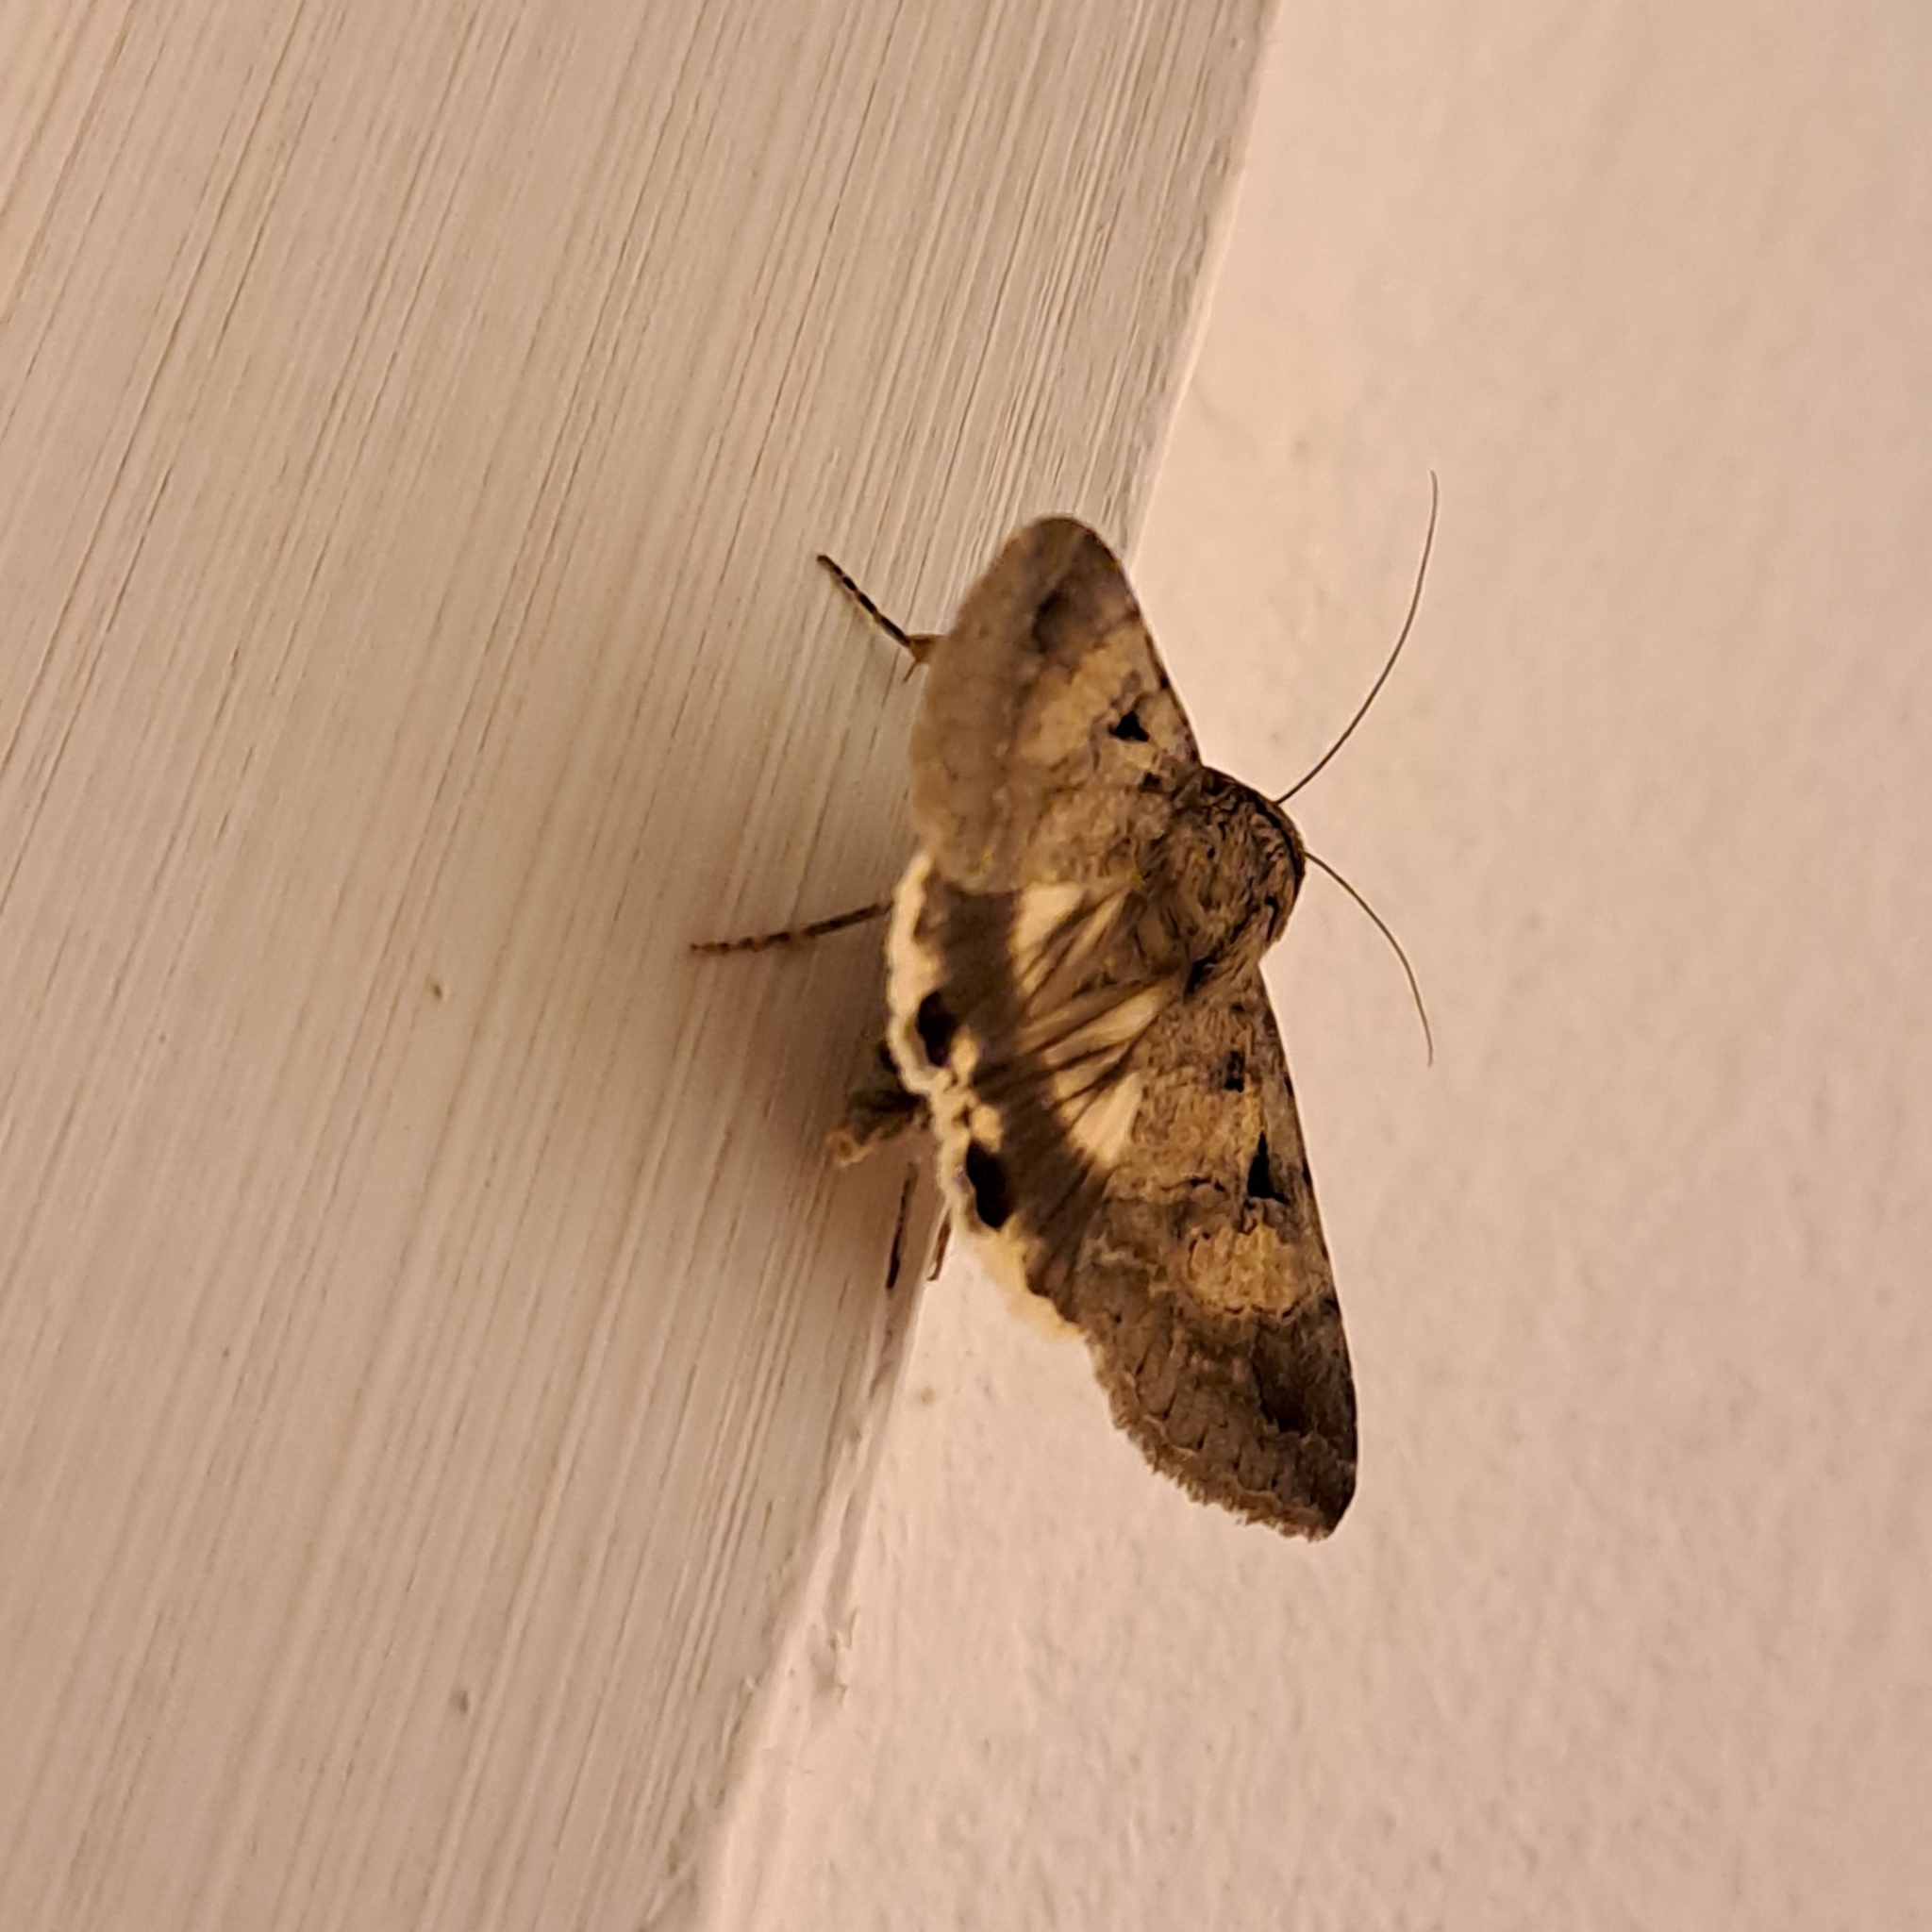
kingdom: Animalia
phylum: Arthropoda
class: Insecta
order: Lepidoptera
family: Erebidae
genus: Melipotis
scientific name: Melipotis walkeri
